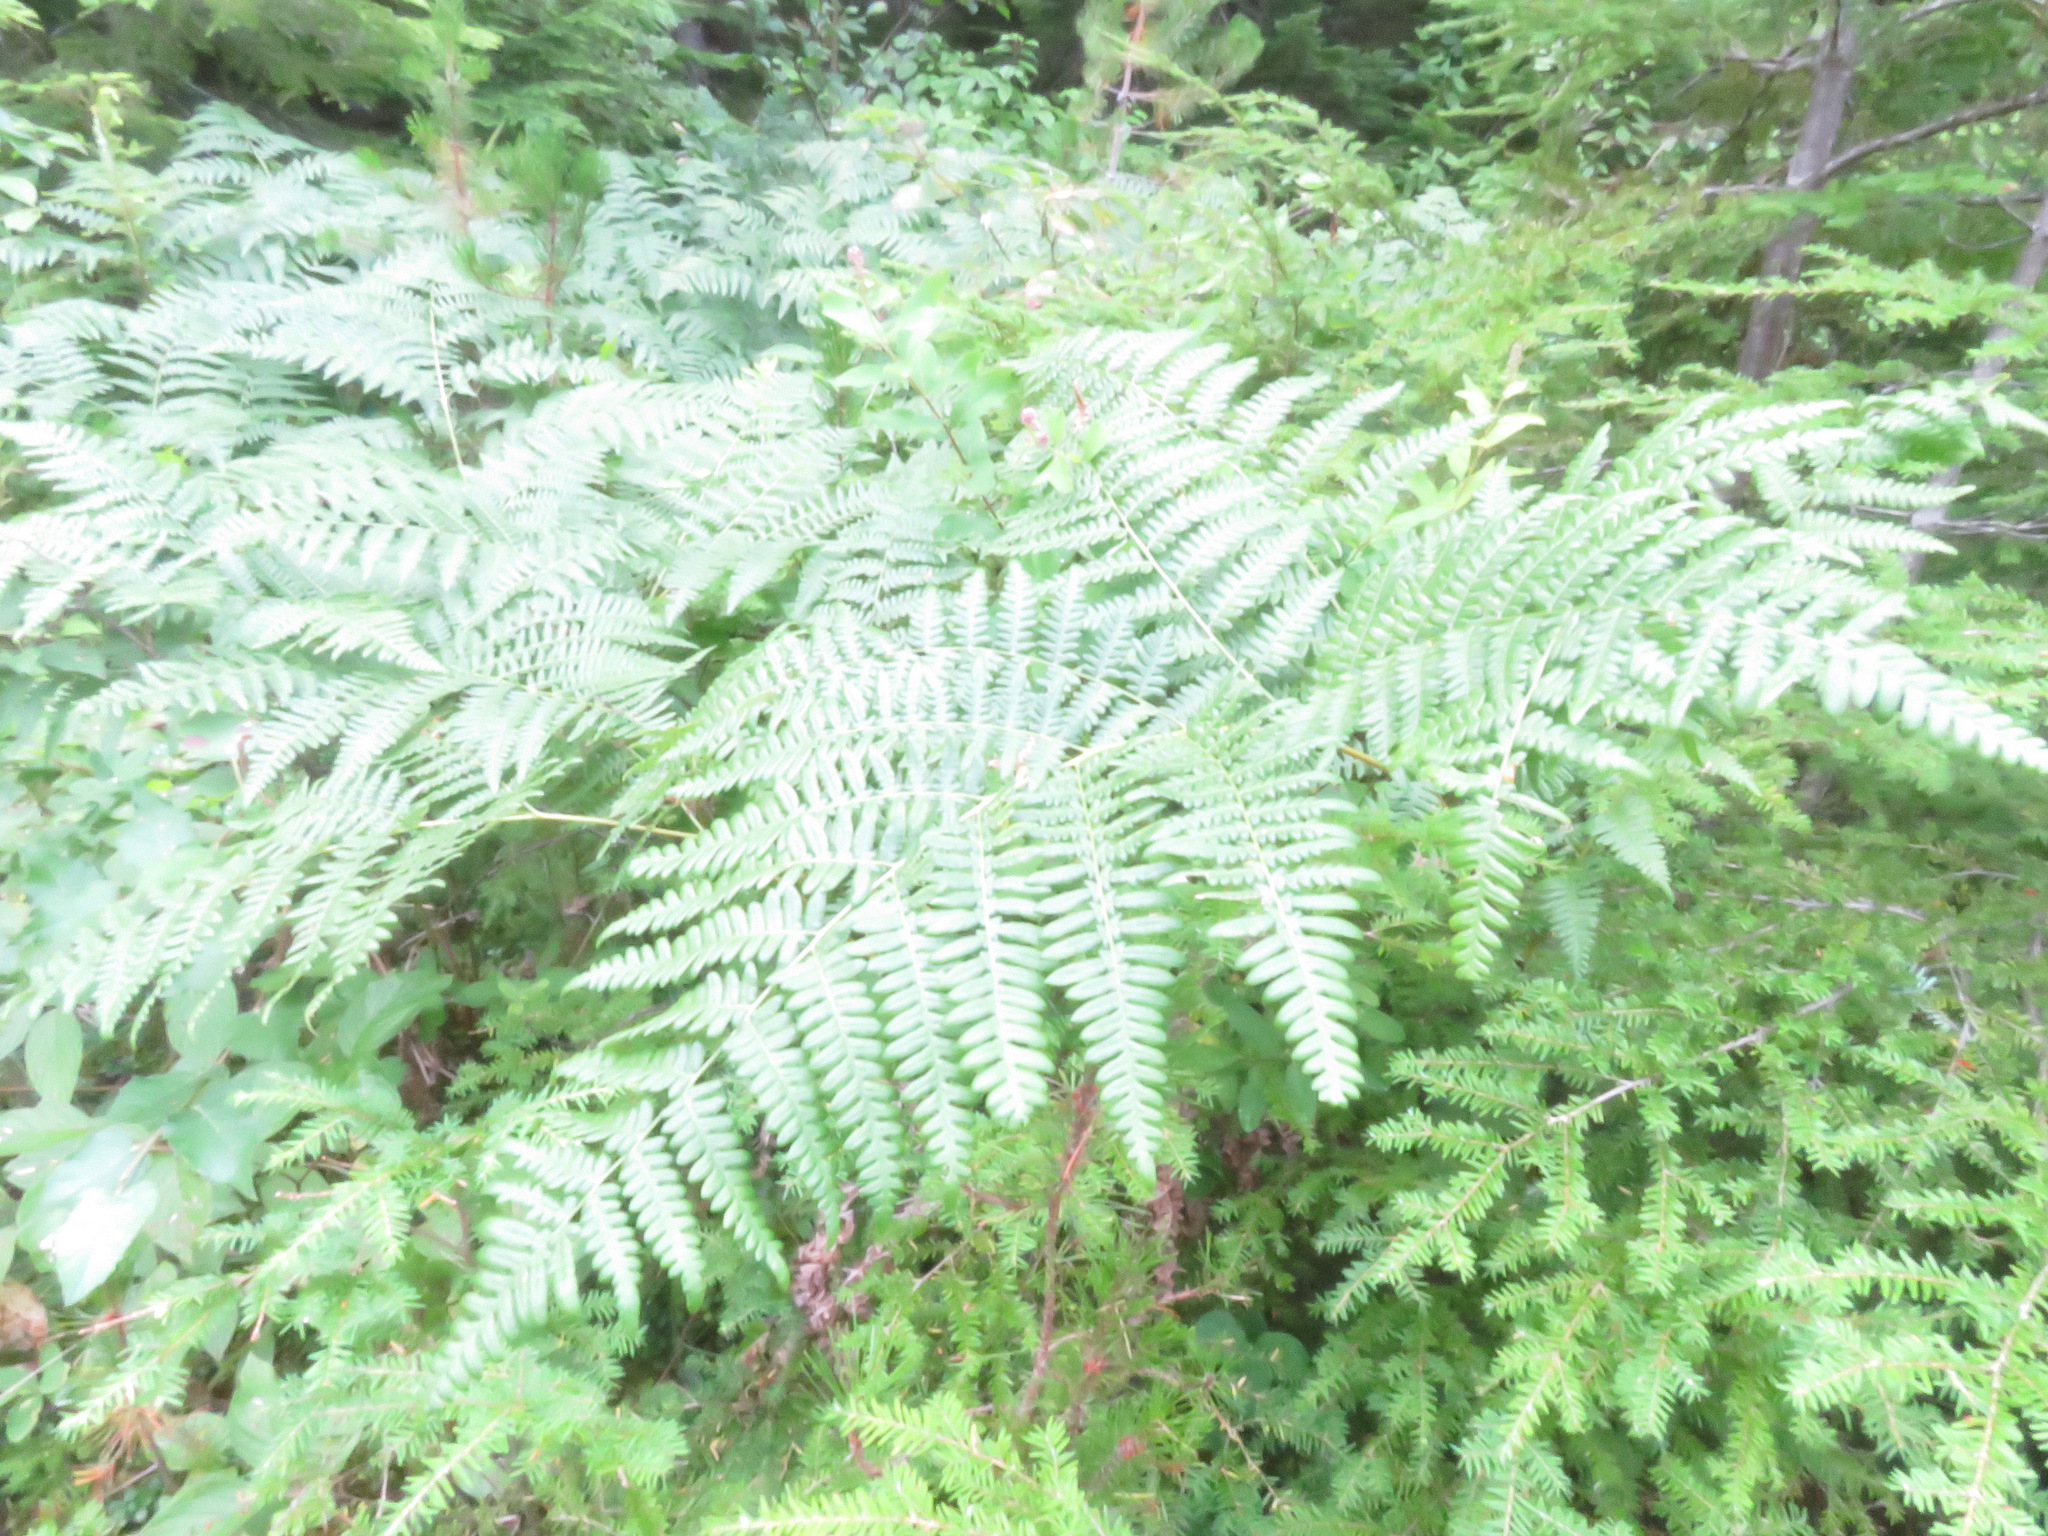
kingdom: Plantae
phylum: Tracheophyta
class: Polypodiopsida
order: Polypodiales
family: Dennstaedtiaceae
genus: Pteridium
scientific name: Pteridium aquilinum
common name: Bracken
